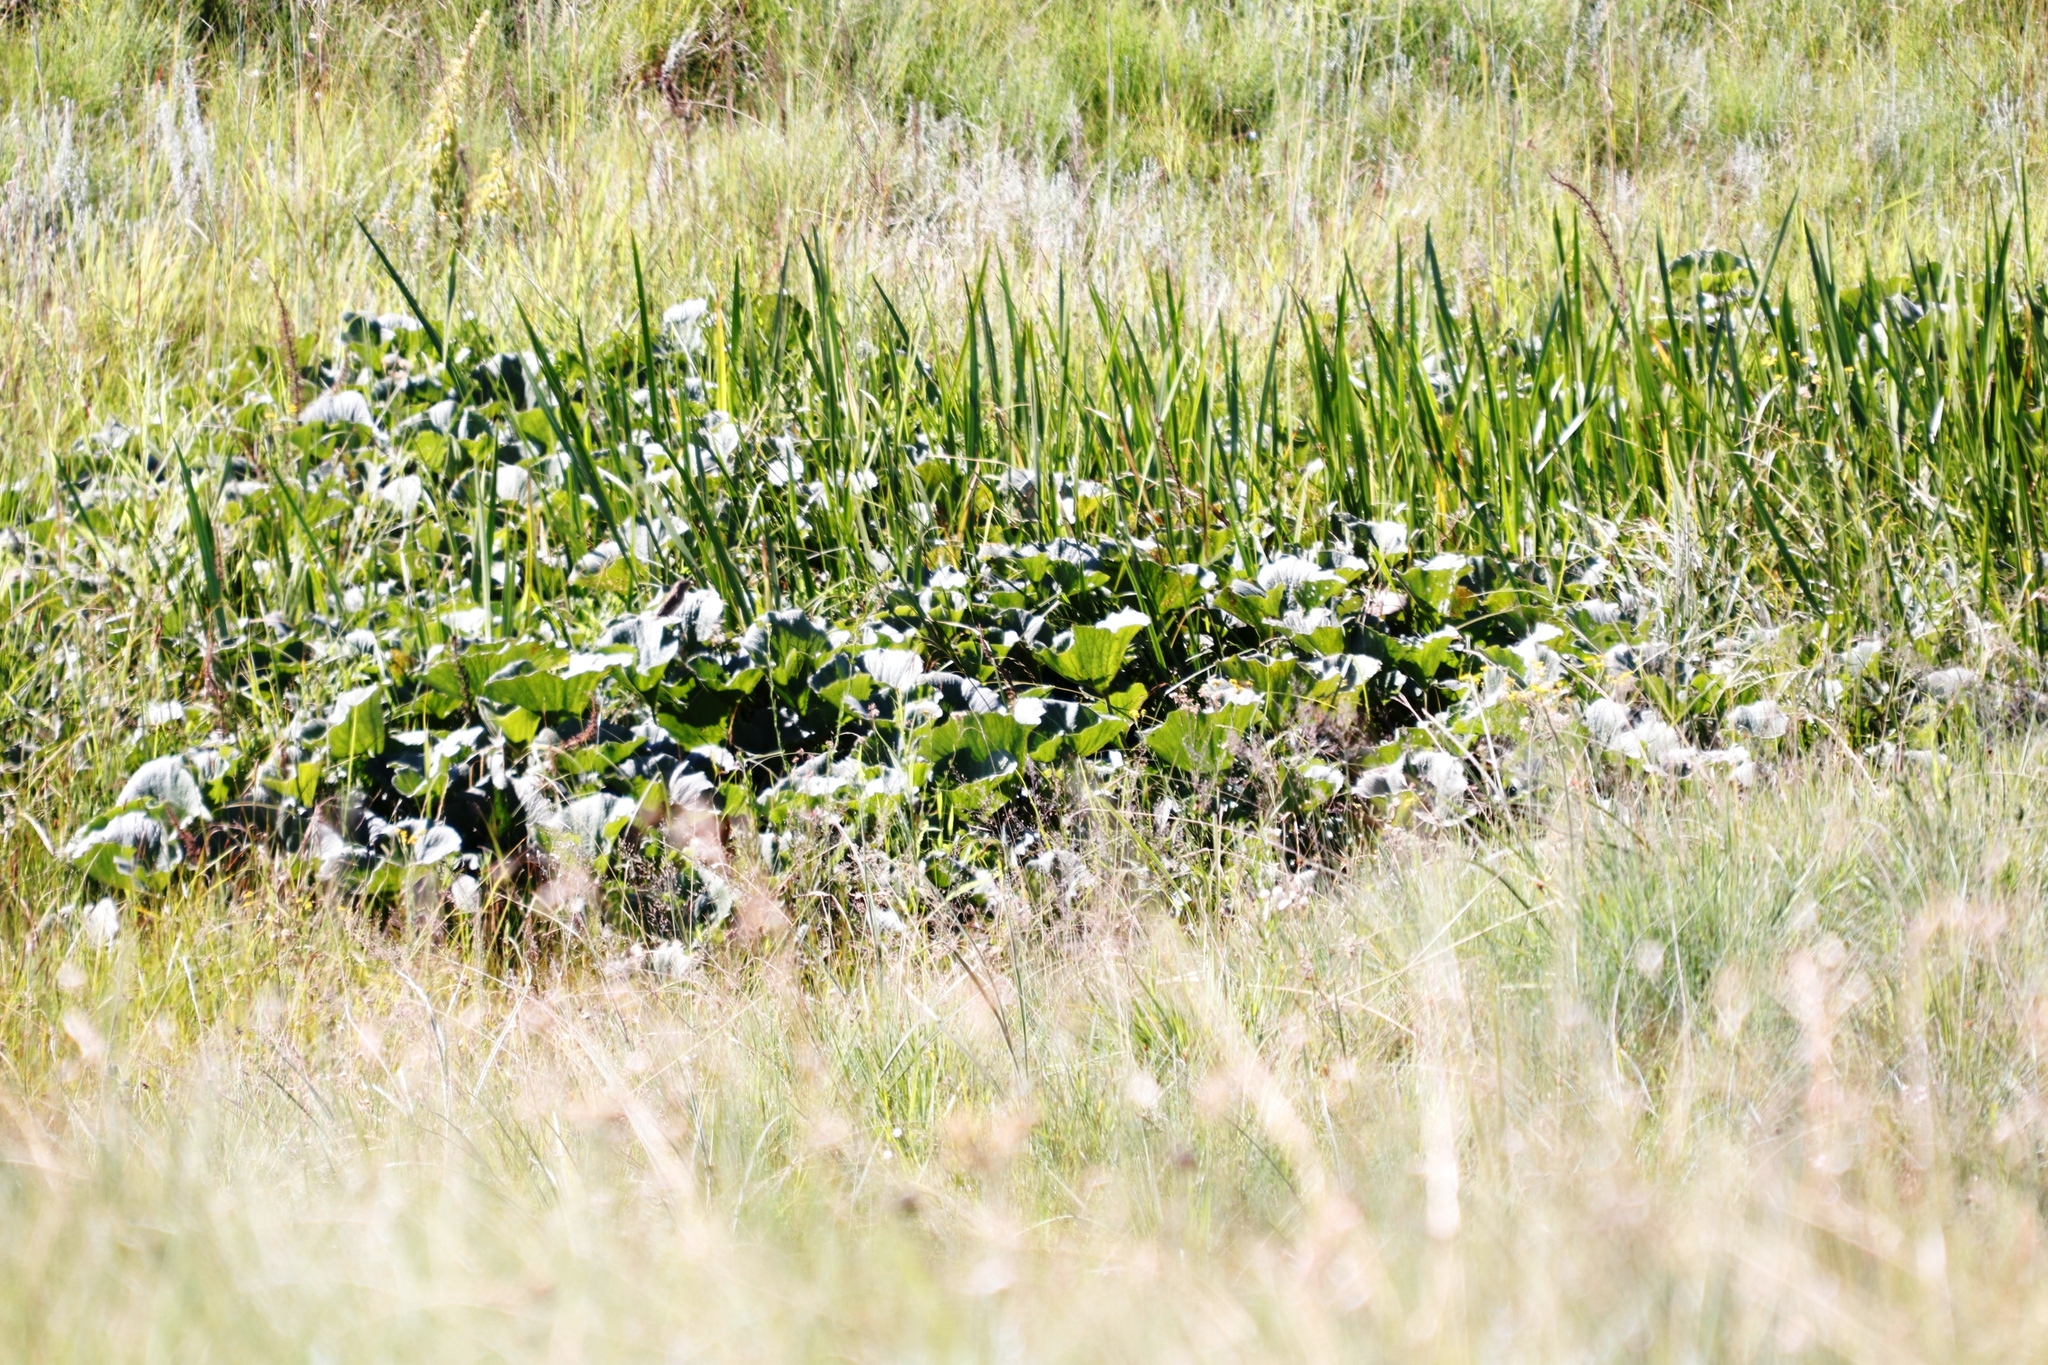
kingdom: Plantae
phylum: Tracheophyta
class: Magnoliopsida
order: Gunnerales
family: Gunneraceae
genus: Gunnera
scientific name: Gunnera perpensa
